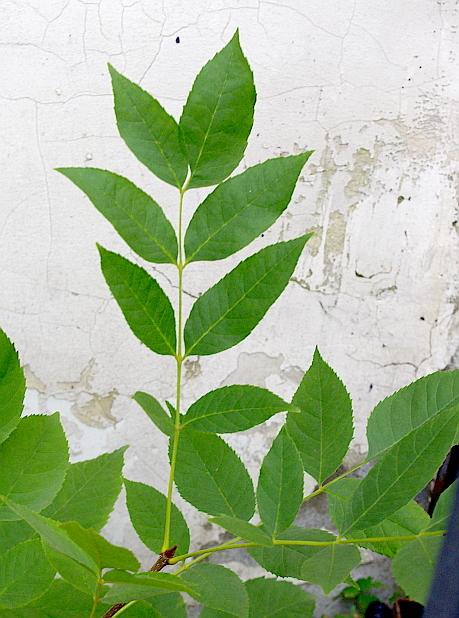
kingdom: Plantae
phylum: Tracheophyta
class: Magnoliopsida
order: Lamiales
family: Oleaceae
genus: Fraxinus
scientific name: Fraxinus pennsylvanica
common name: Green ash
